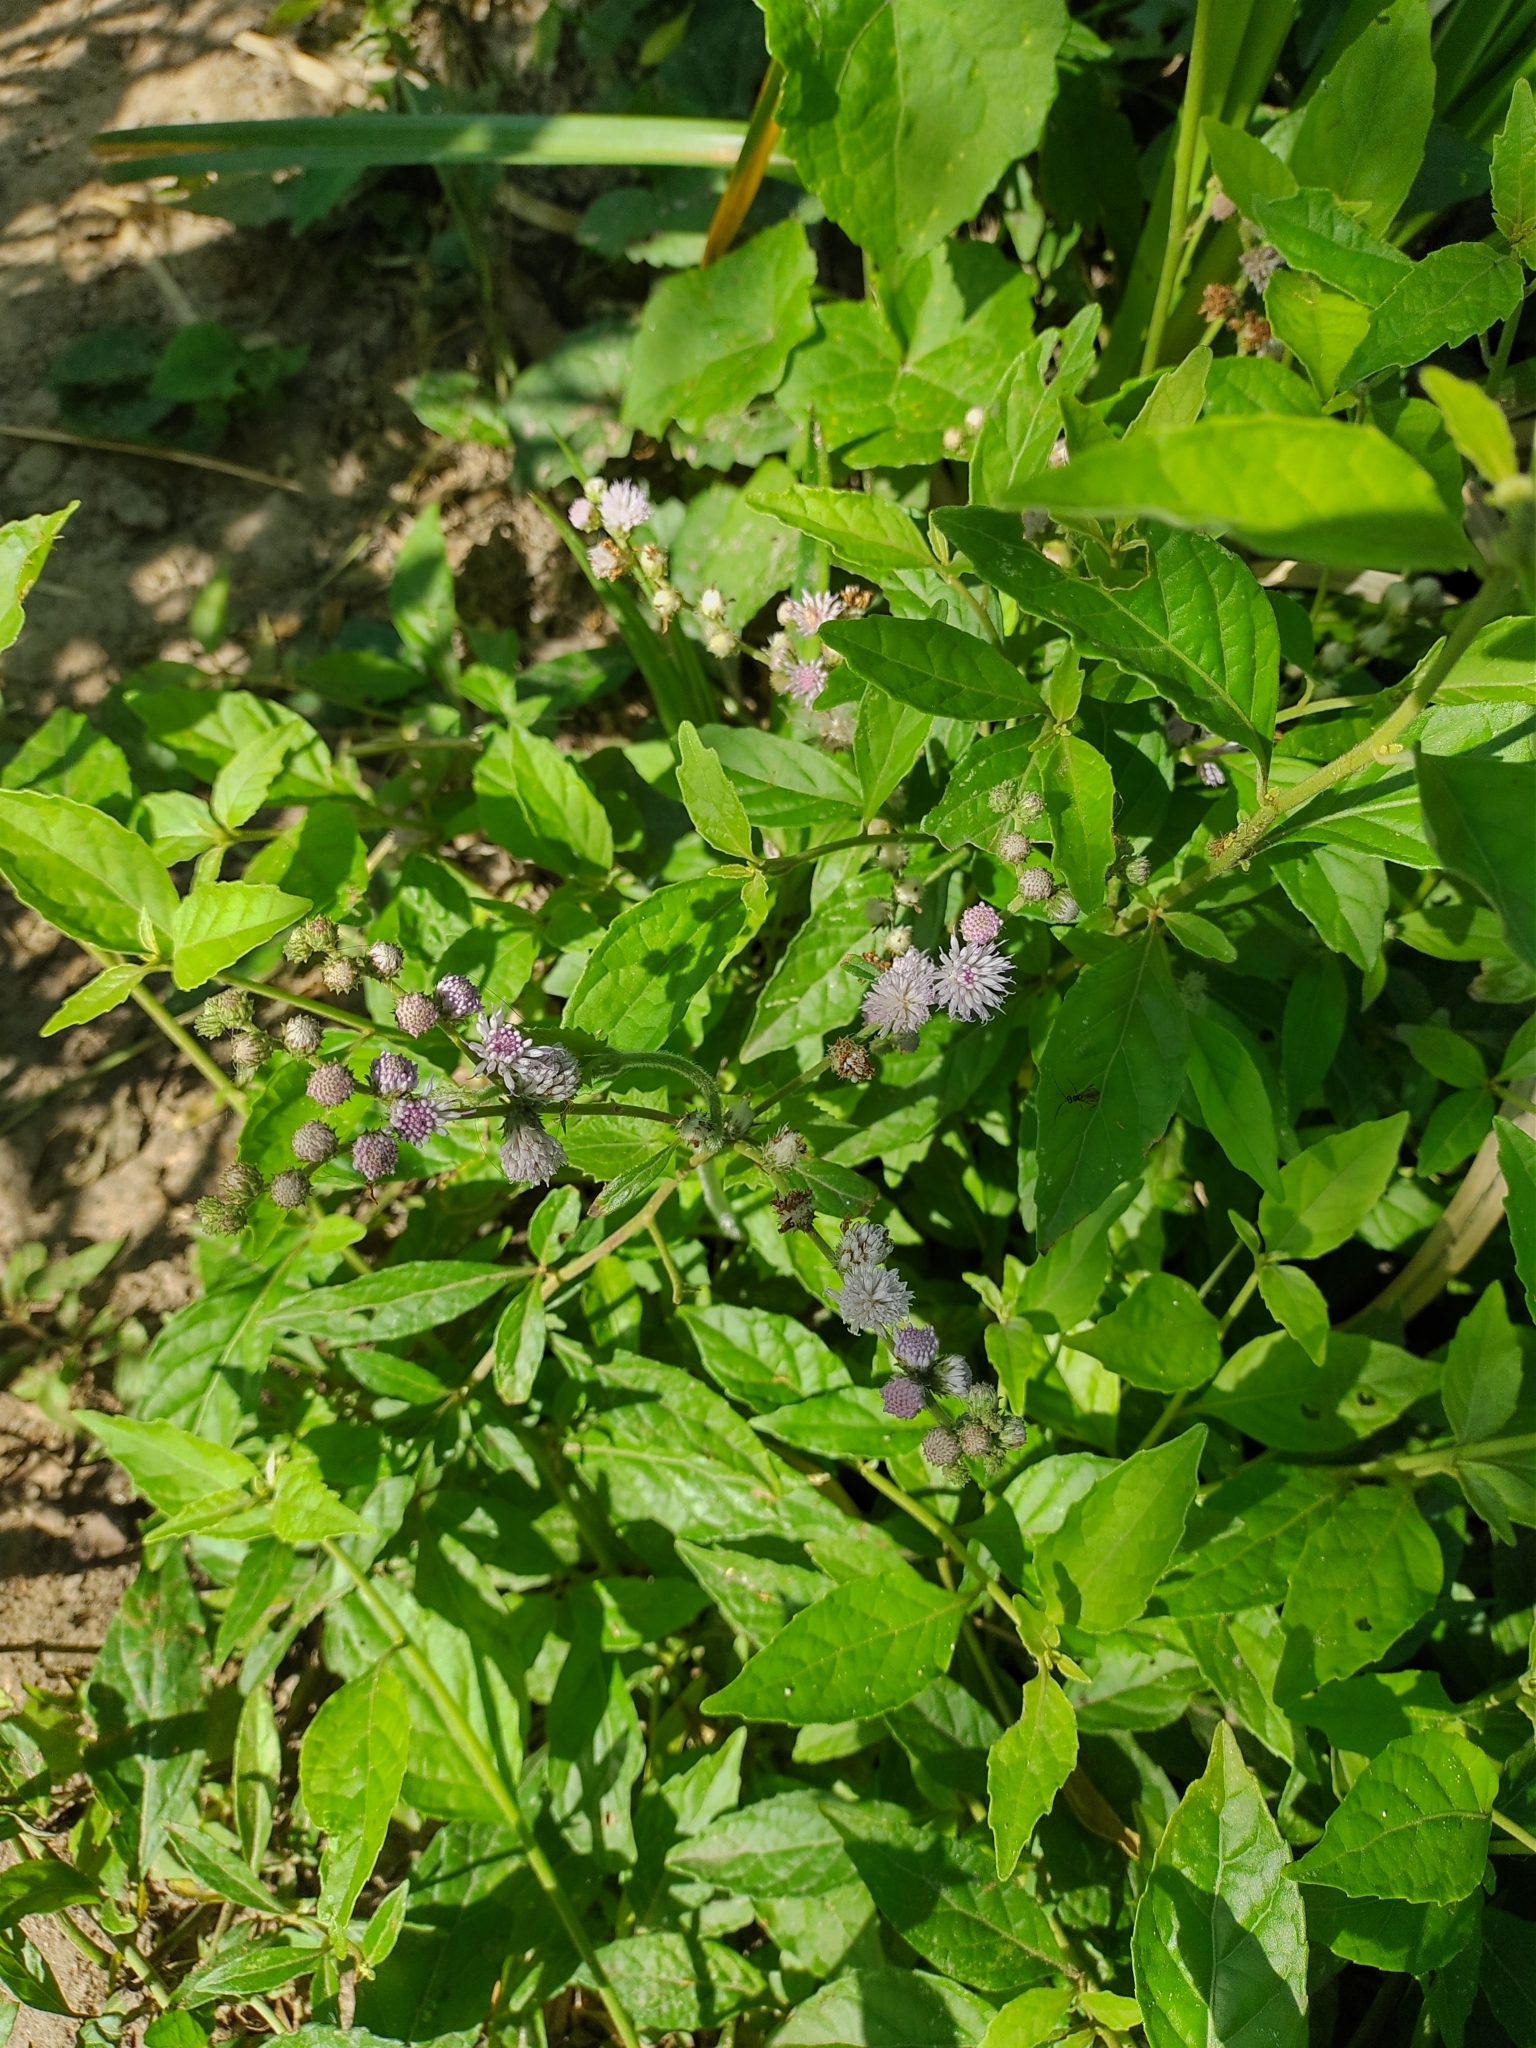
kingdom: Plantae
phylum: Tracheophyta
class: Magnoliopsida
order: Asterales
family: Asteraceae
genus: Cyrtocymura
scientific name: Cyrtocymura scorpioides
